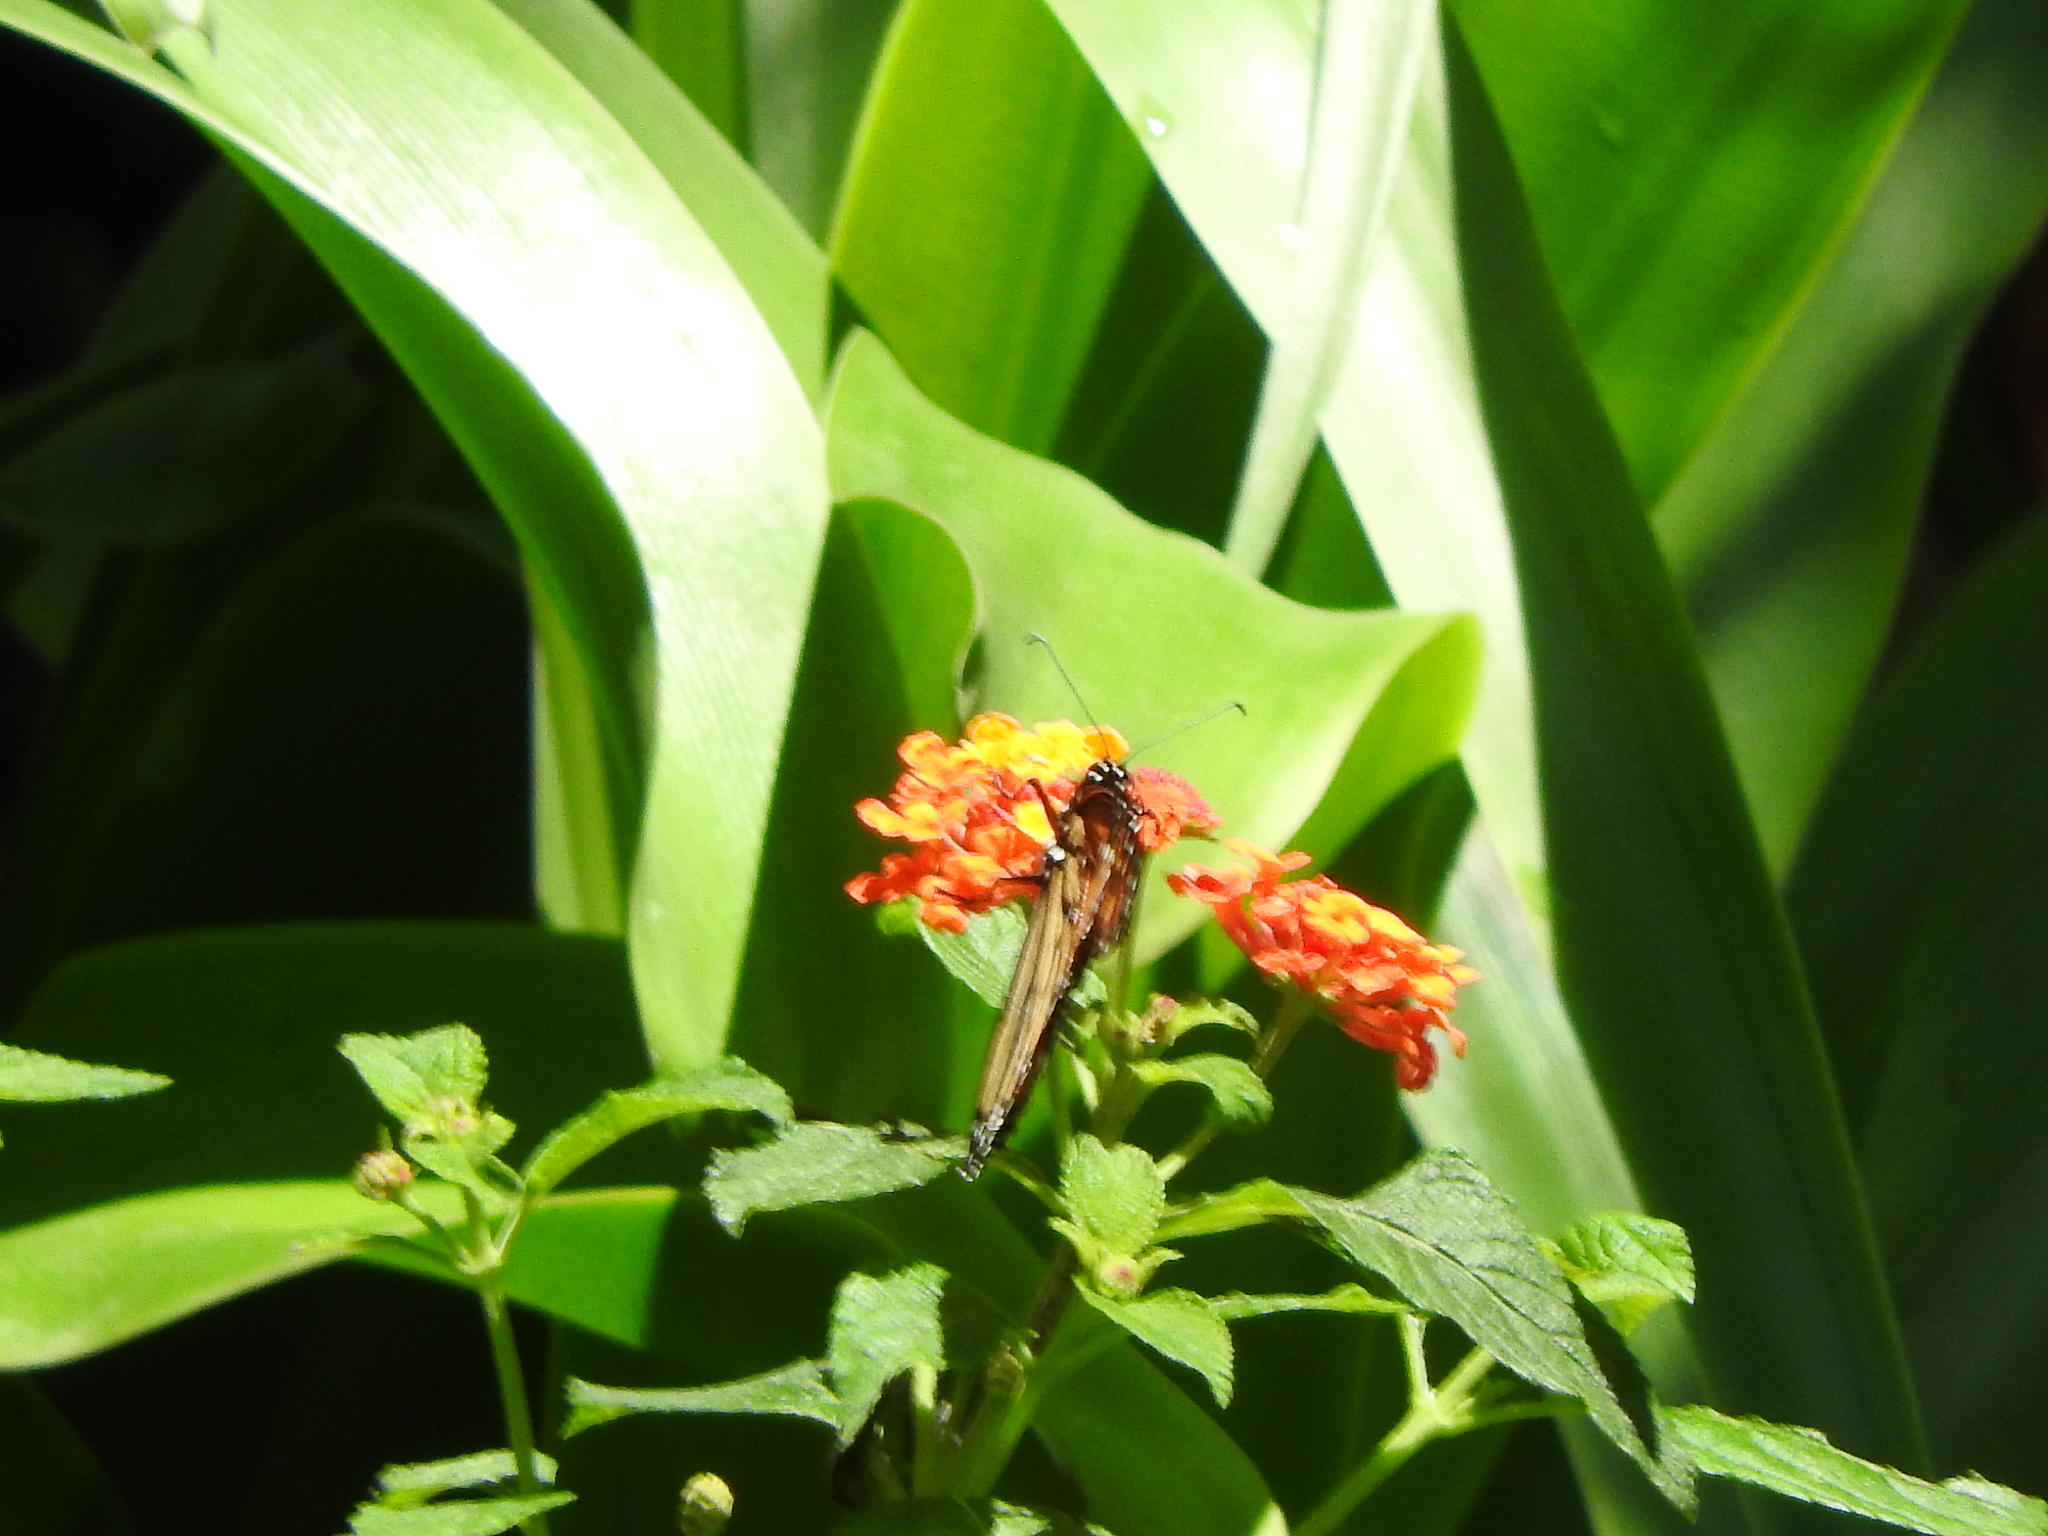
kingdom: Animalia
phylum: Arthropoda
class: Insecta
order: Lepidoptera
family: Nymphalidae
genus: Danaus
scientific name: Danaus plexippus
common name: Monarch
